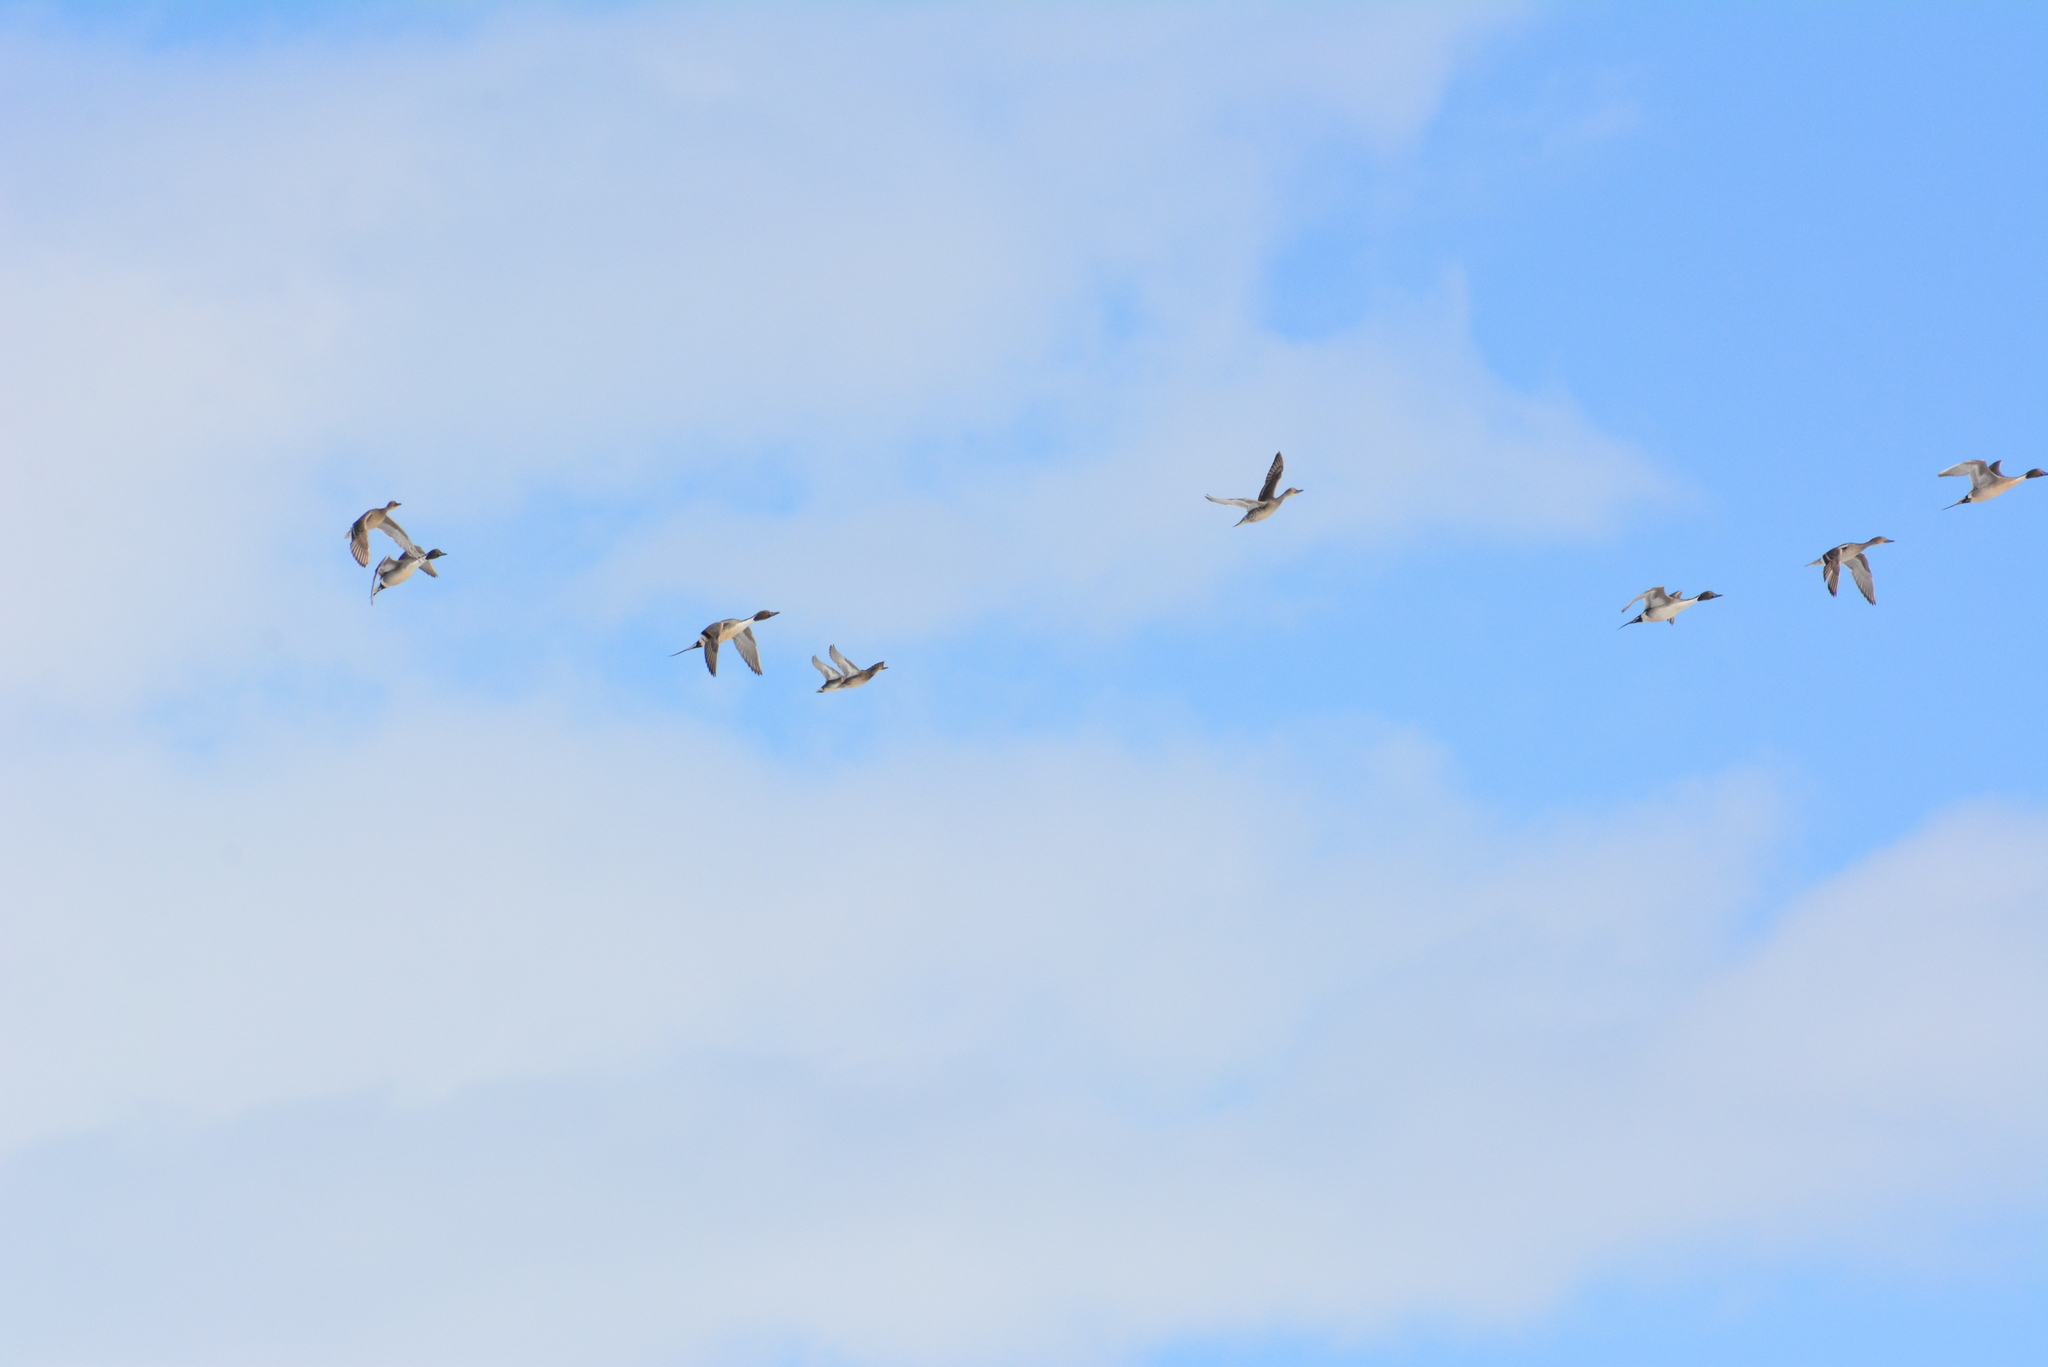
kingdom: Animalia
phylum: Chordata
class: Aves
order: Anseriformes
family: Anatidae
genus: Anas
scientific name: Anas acuta
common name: Northern pintail
